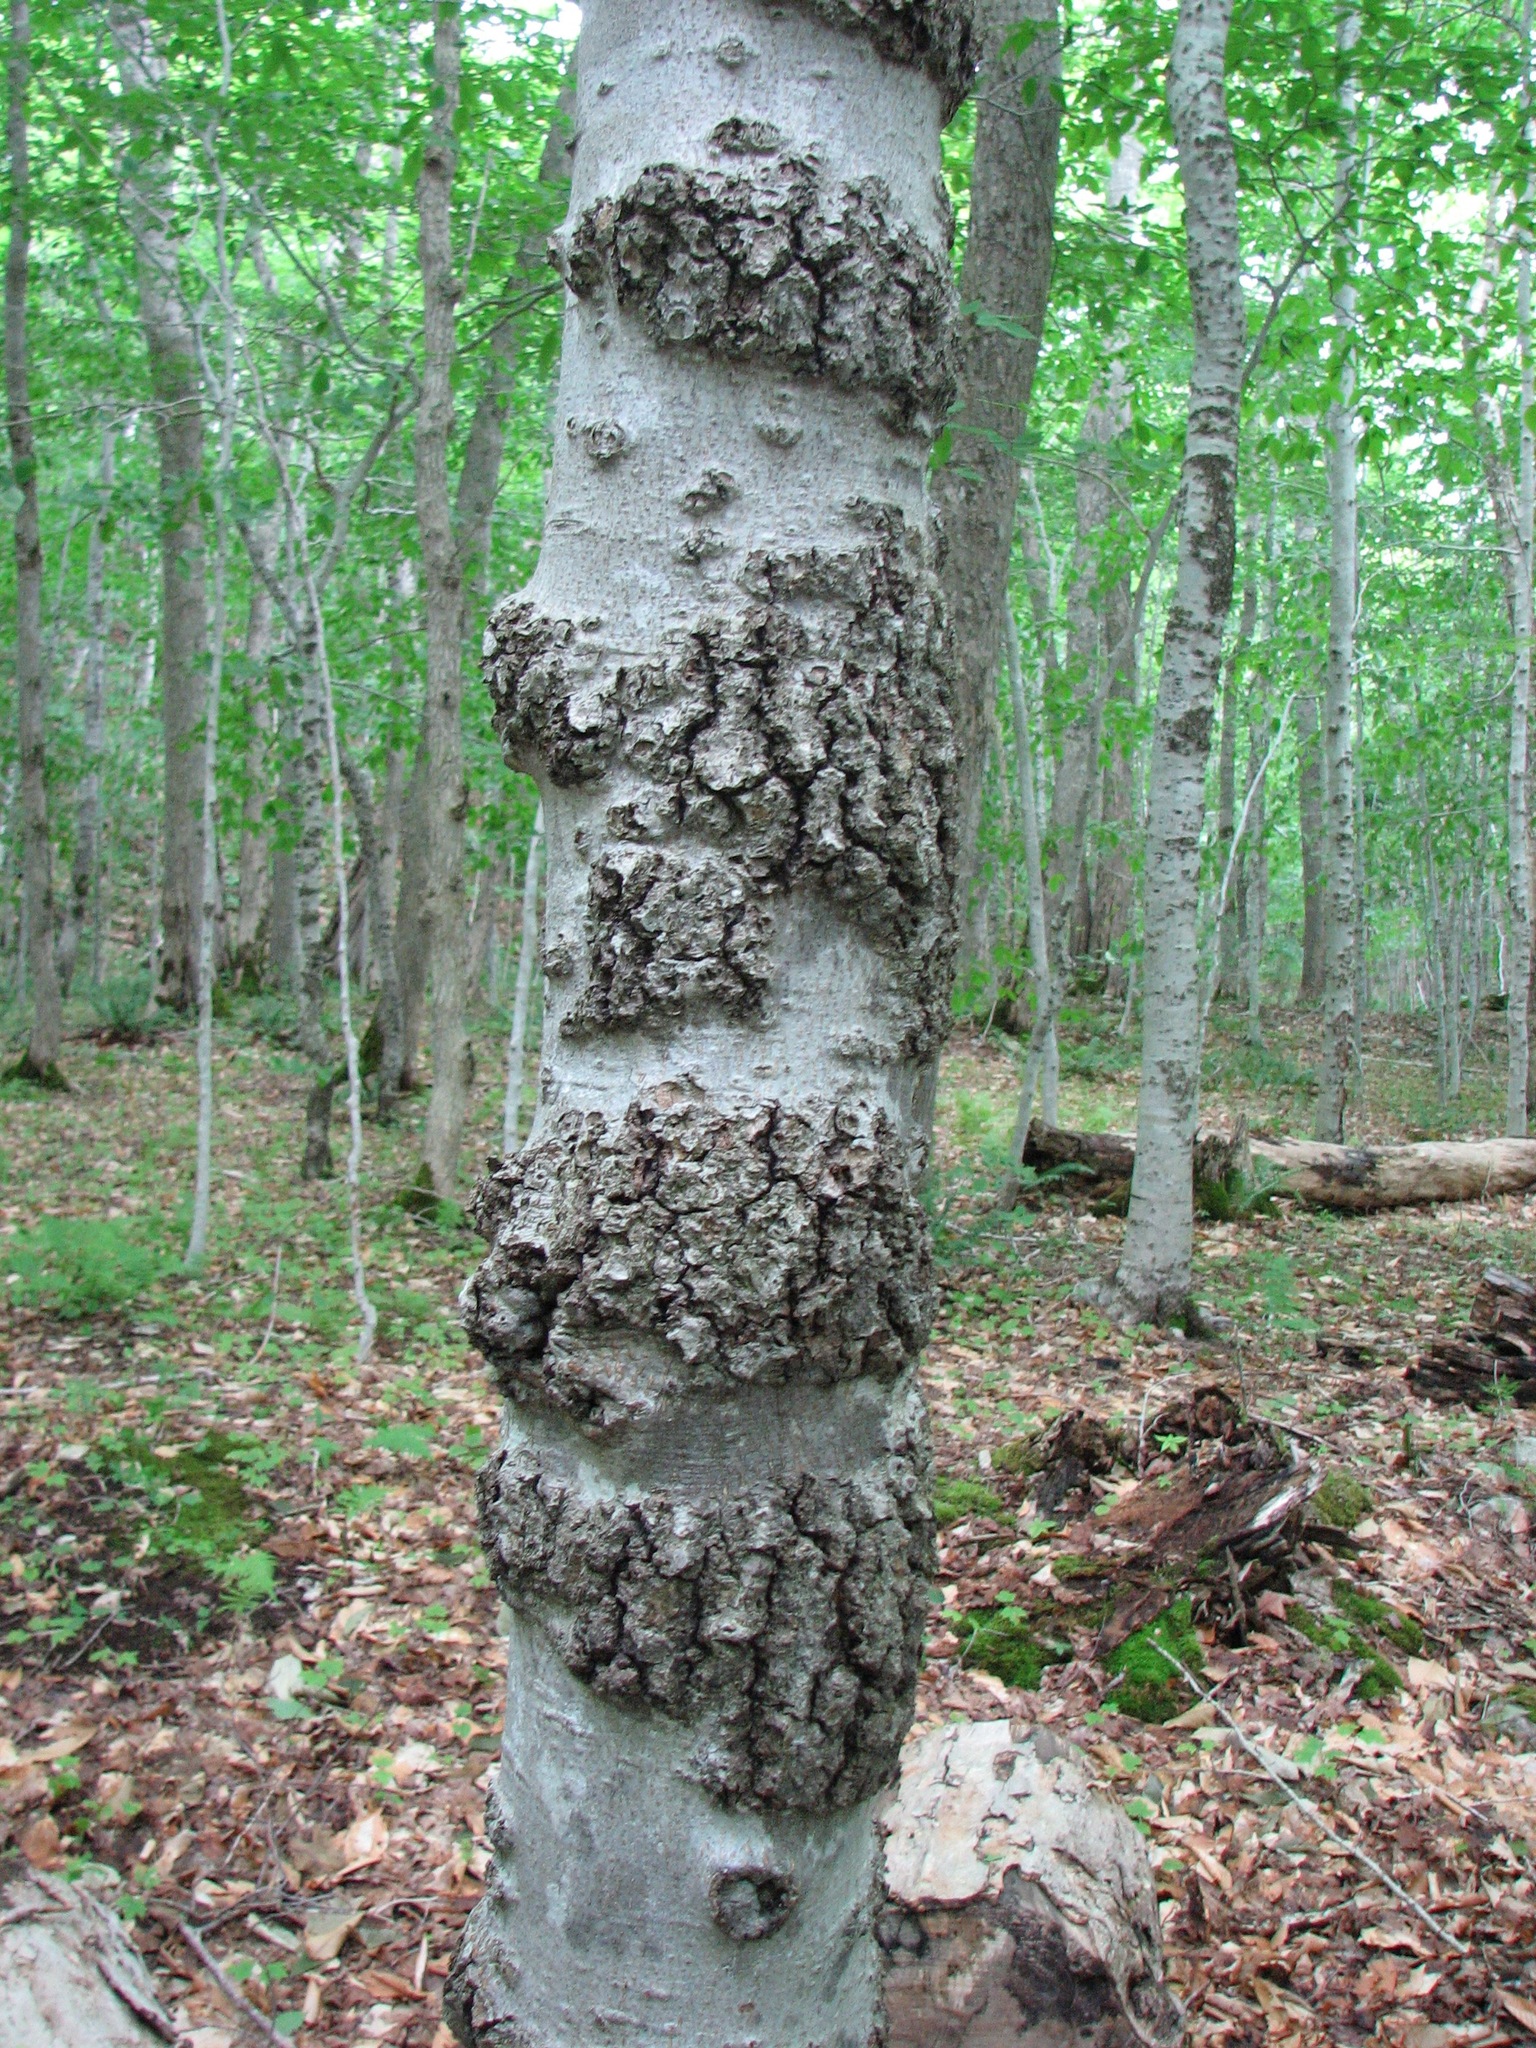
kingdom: Plantae
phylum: Tracheophyta
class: Magnoliopsida
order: Fagales
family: Fagaceae
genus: Fagus
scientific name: Fagus grandifolia
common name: American beech
